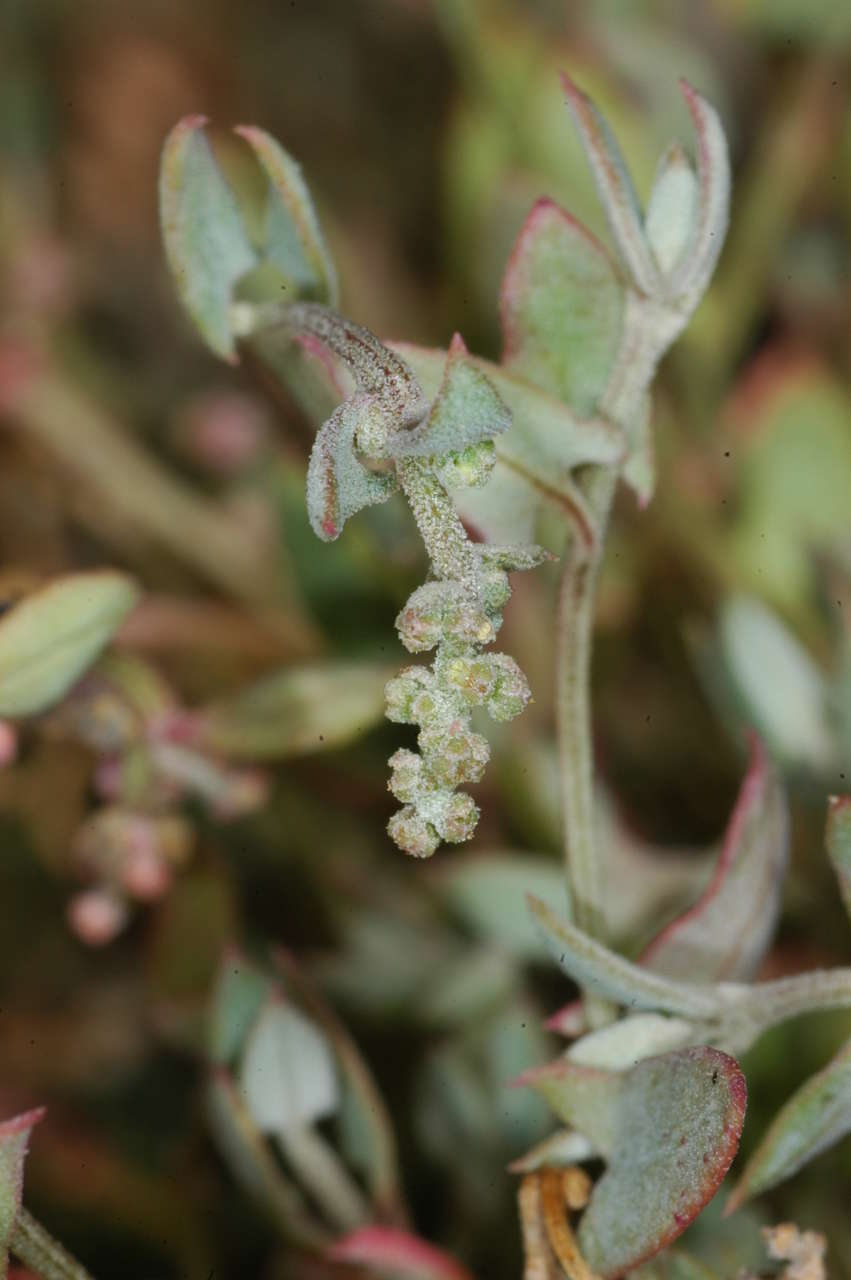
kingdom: Plantae
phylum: Tracheophyta
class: Magnoliopsida
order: Caryophyllales
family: Amaranthaceae
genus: Chenopodium
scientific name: Chenopodium nutans
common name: Climbing-saltbush
